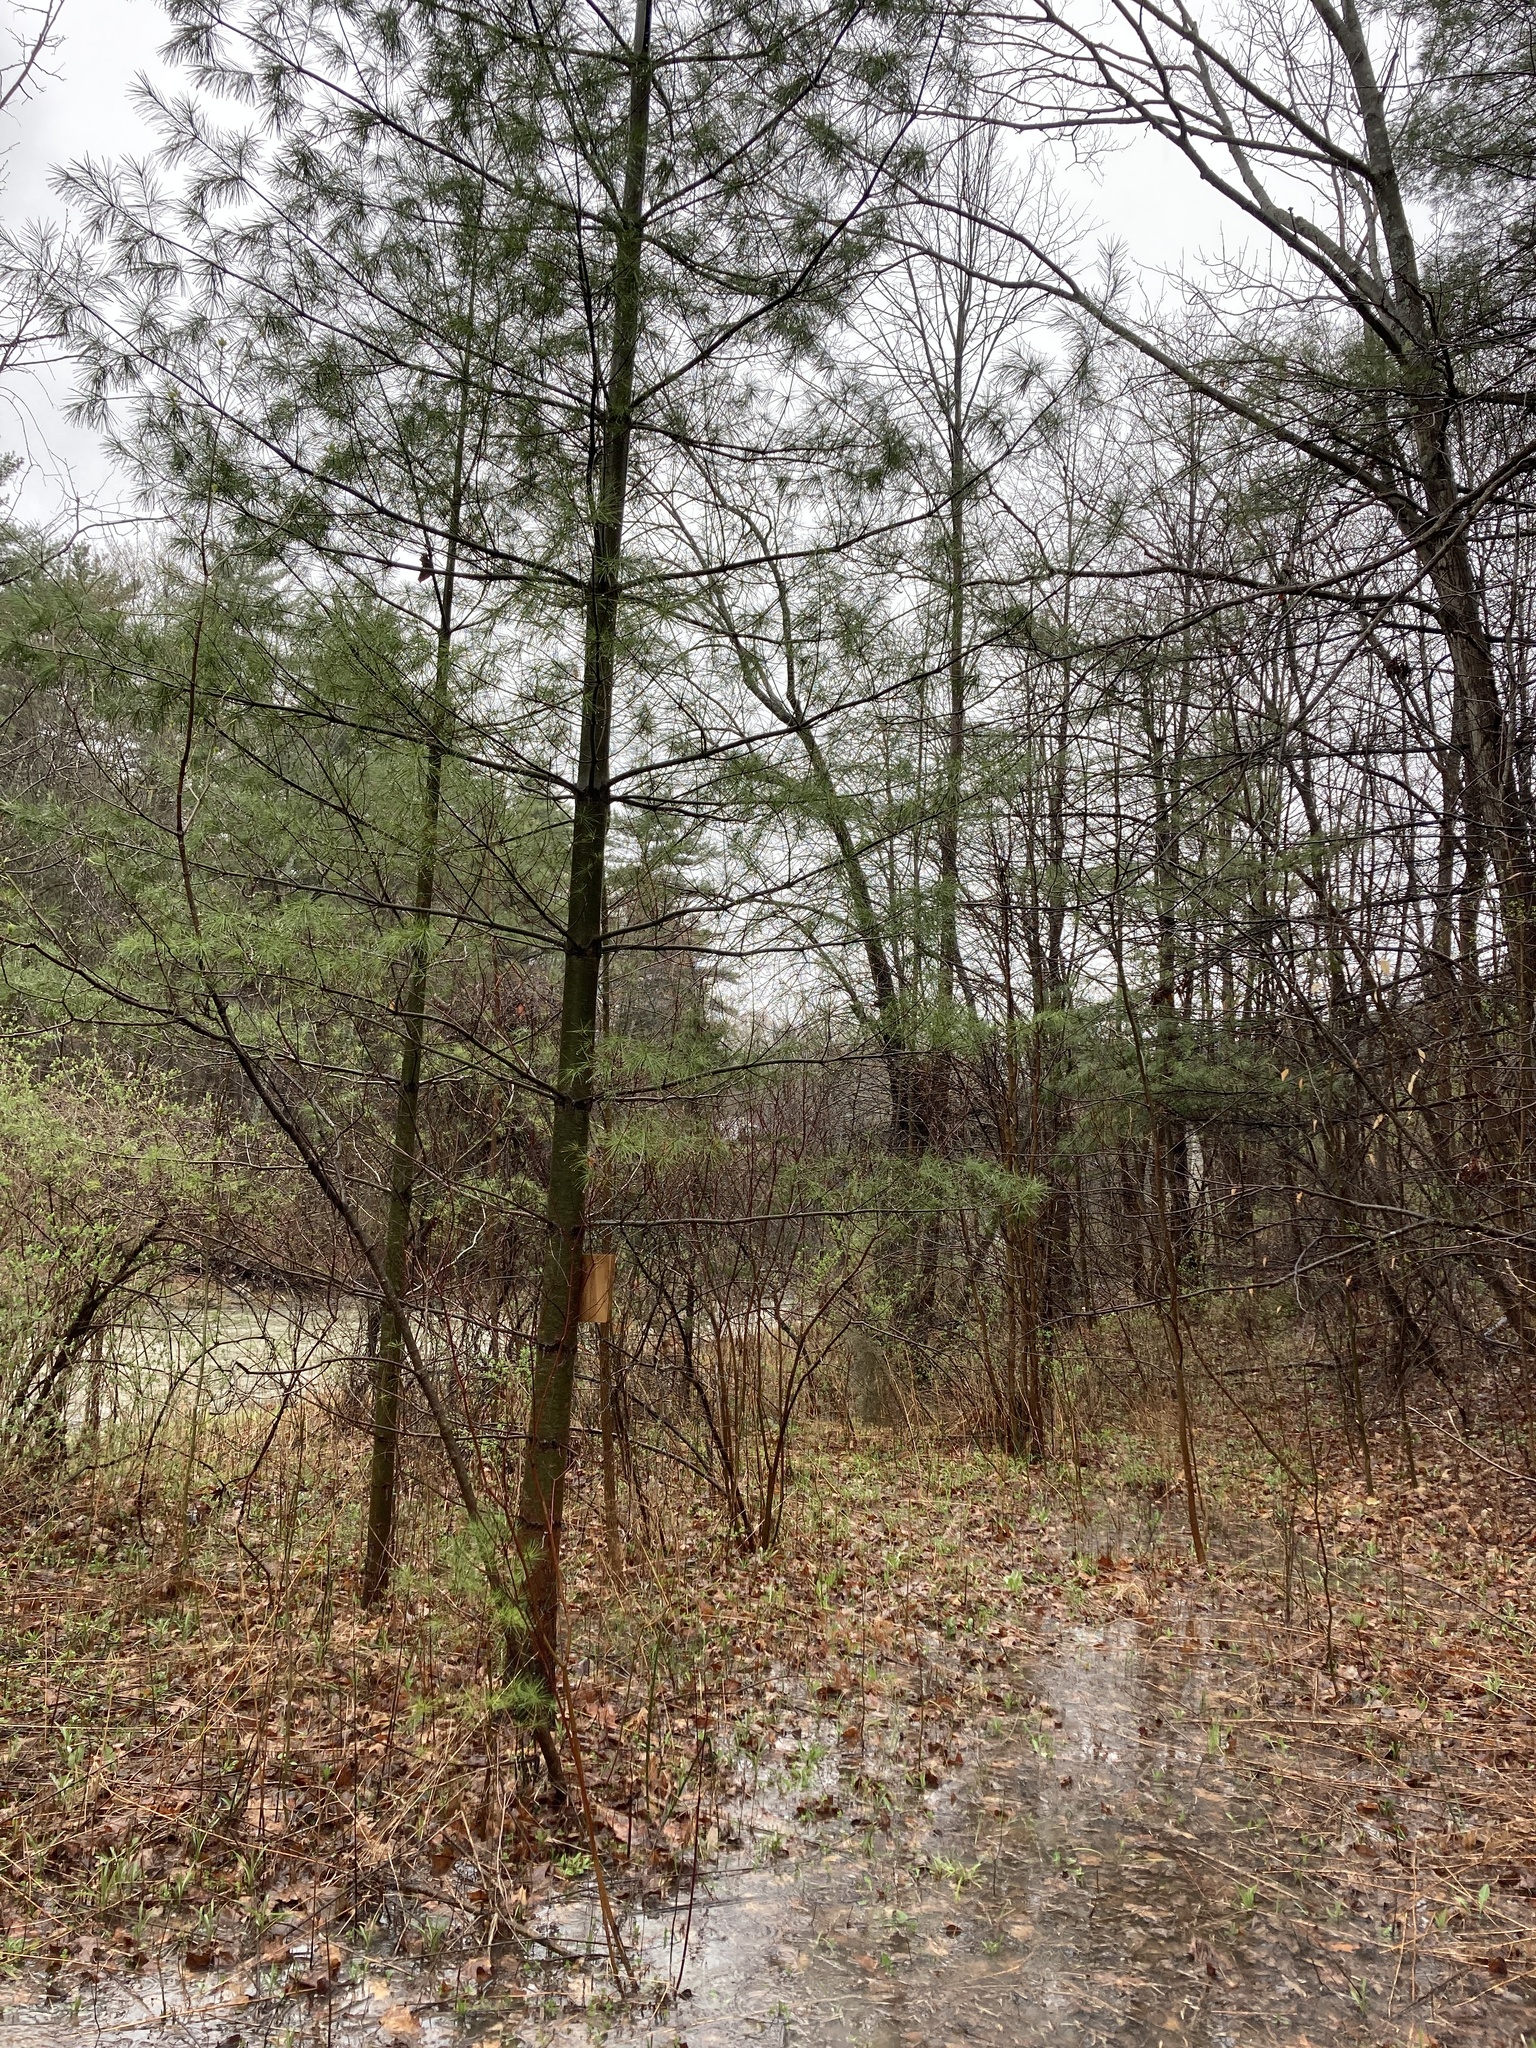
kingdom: Plantae
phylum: Tracheophyta
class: Pinopsida
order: Pinales
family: Pinaceae
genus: Pinus
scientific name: Pinus strobus
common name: Weymouth pine
